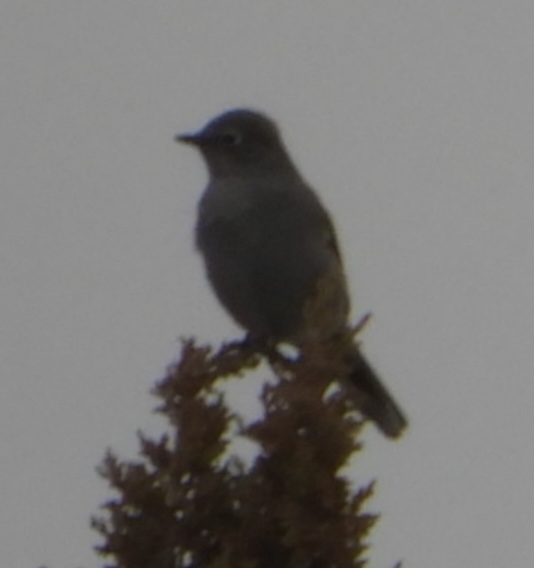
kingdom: Animalia
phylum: Chordata
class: Aves
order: Passeriformes
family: Turdidae
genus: Myadestes
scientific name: Myadestes townsendi
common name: Townsend's solitaire
